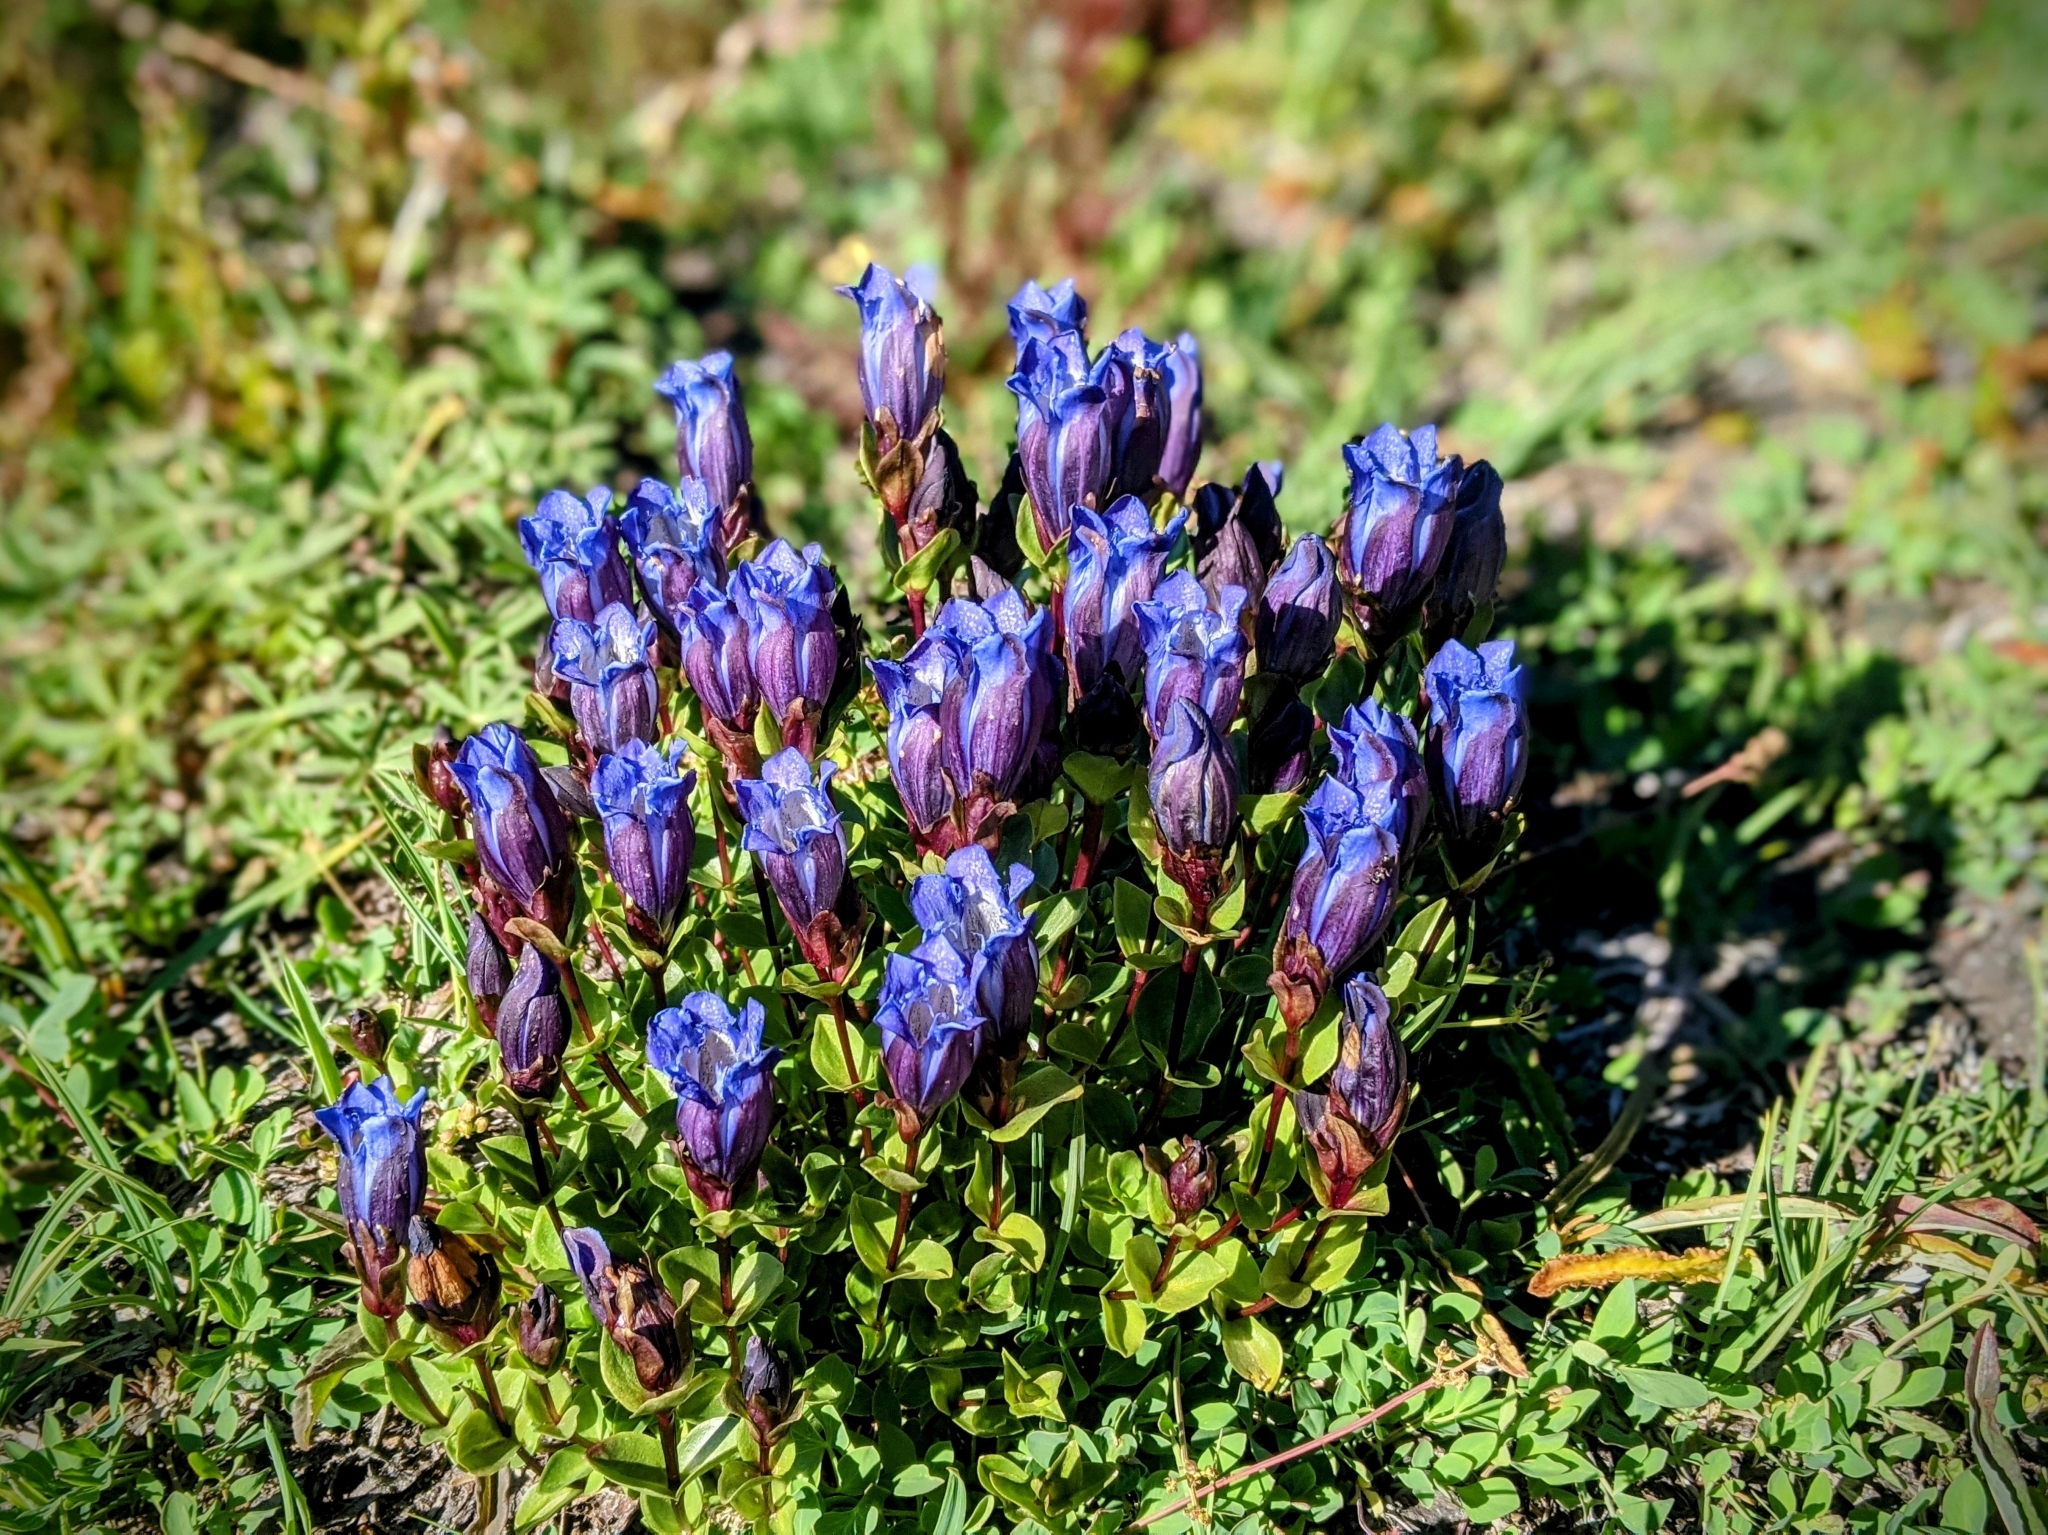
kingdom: Plantae
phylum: Tracheophyta
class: Magnoliopsida
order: Gentianales
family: Gentianaceae
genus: Gentiana
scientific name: Gentiana calycosa
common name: Rainier pleated gentian
